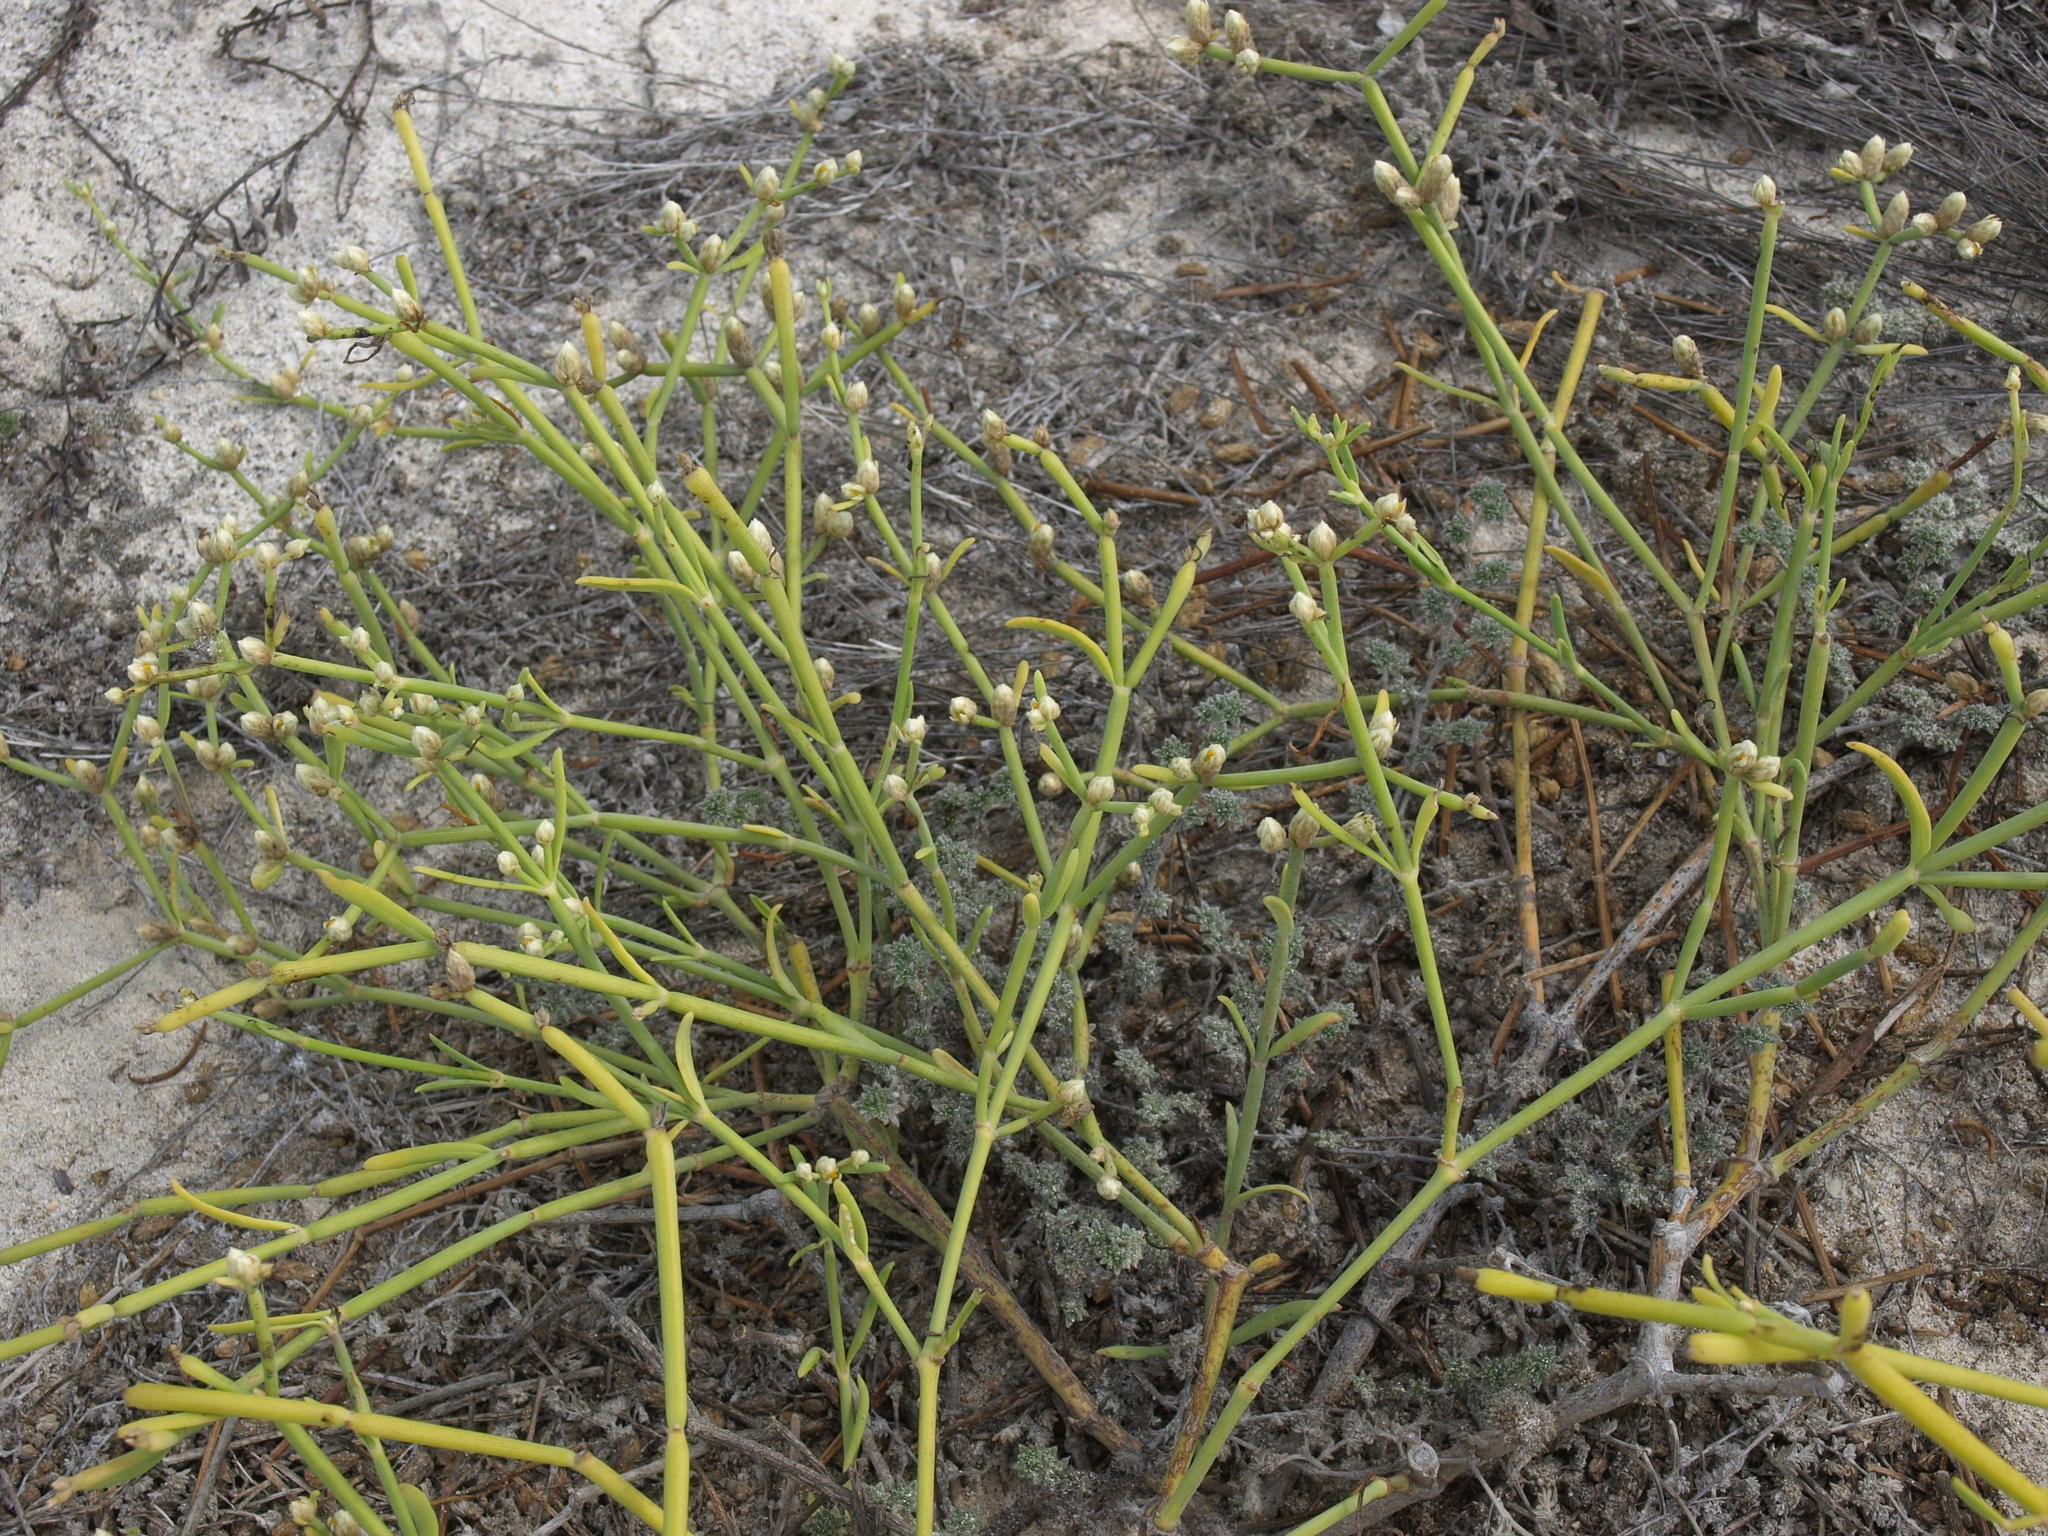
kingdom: Plantae
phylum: Tracheophyta
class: Magnoliopsida
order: Caryophyllales
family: Amaranthaceae
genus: Alternanthera
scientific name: Alternanthera filifolia
